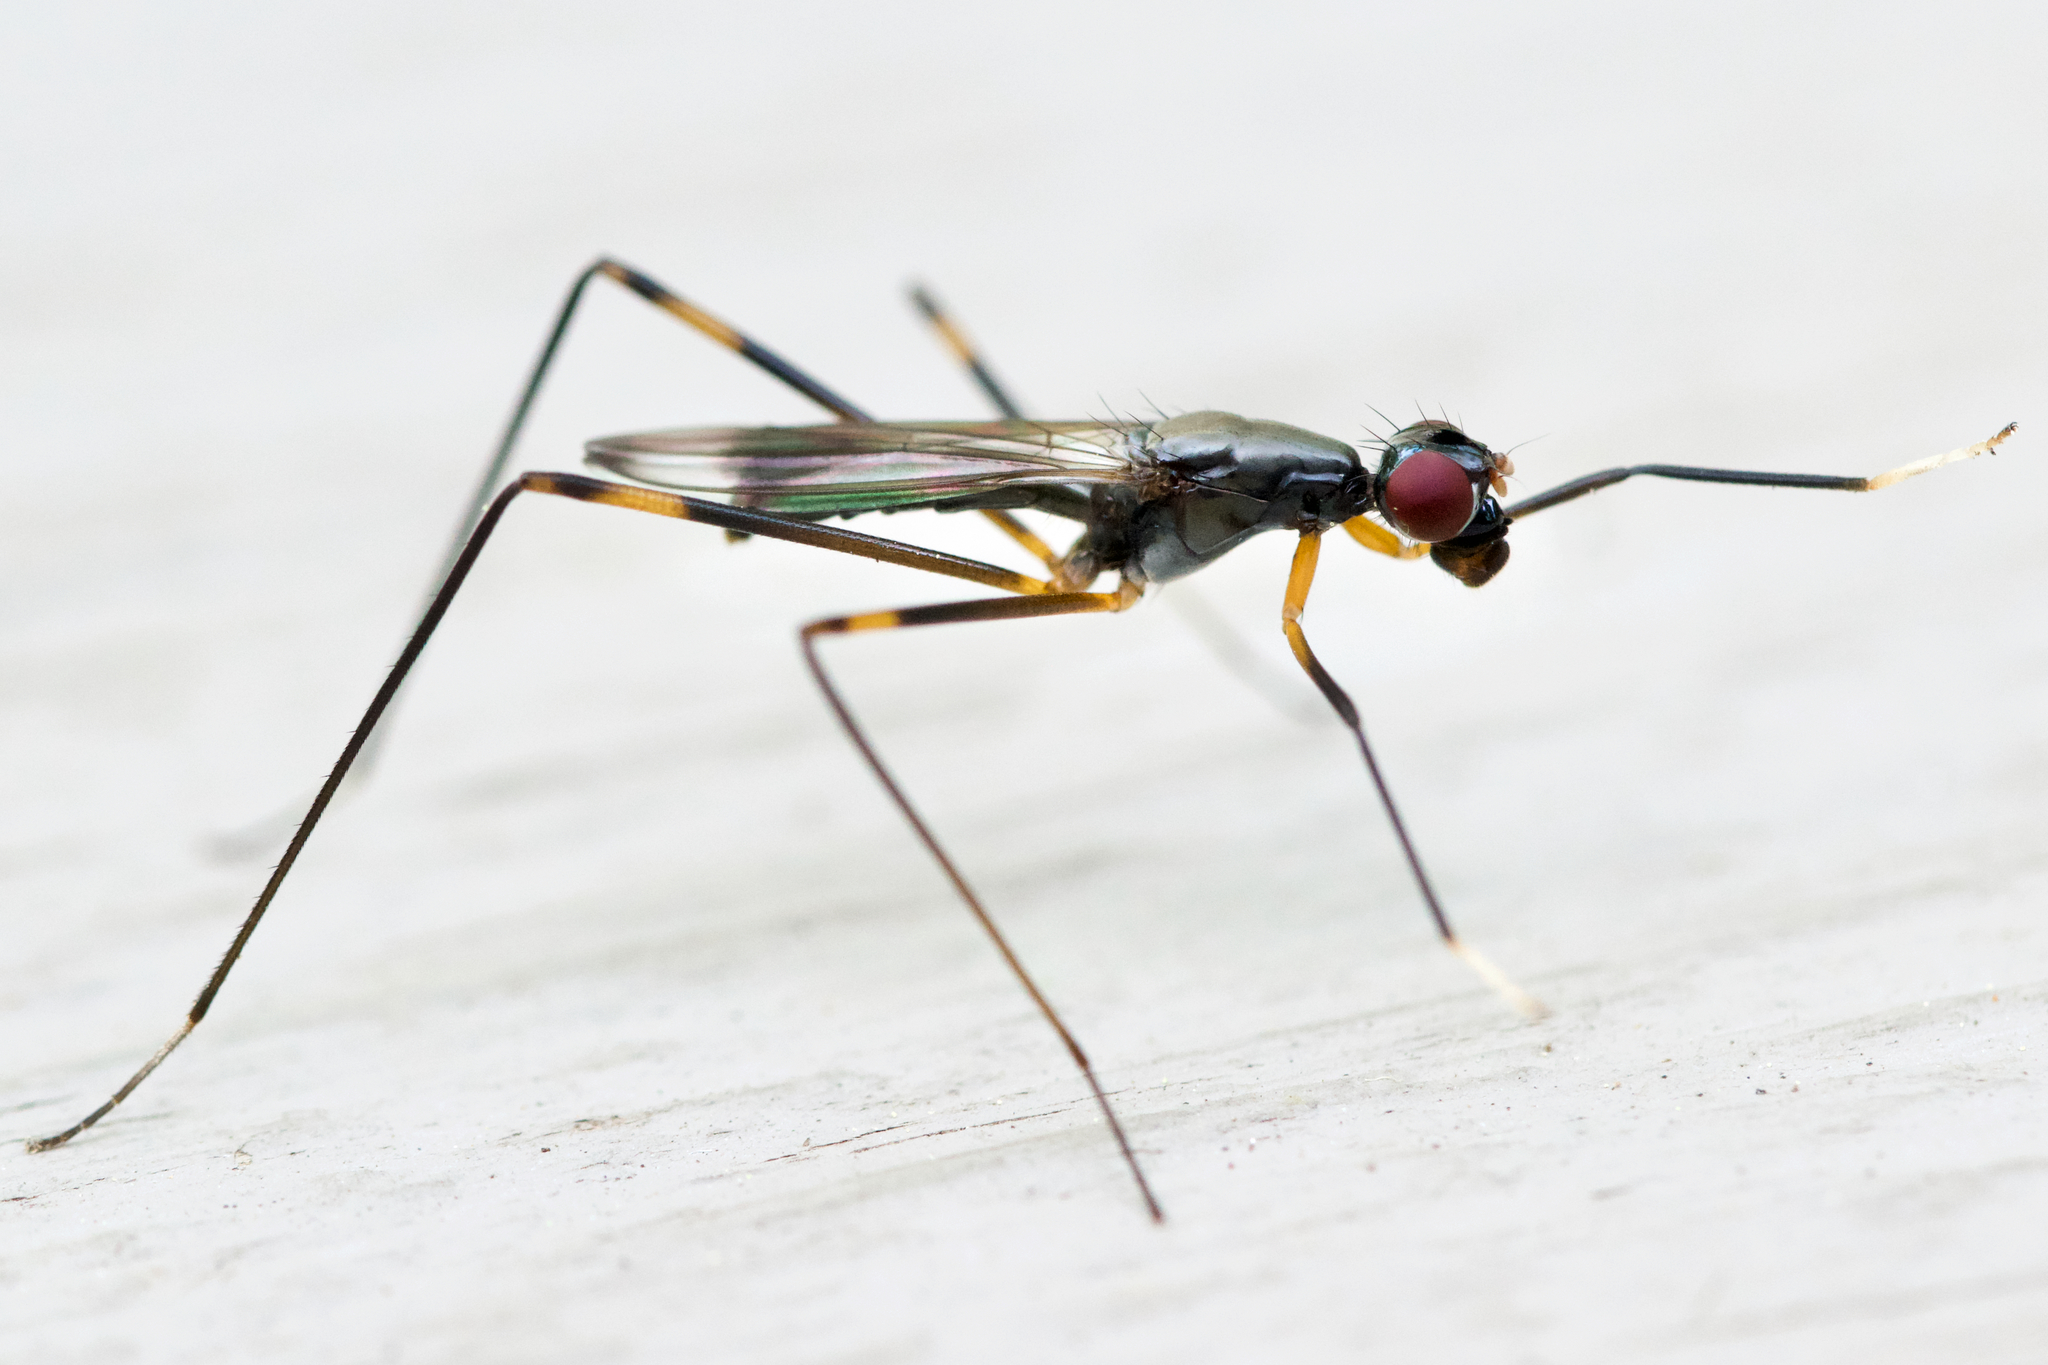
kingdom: Animalia
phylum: Arthropoda
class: Insecta
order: Diptera
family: Micropezidae
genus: Rainieria
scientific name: Rainieria antennaepes
